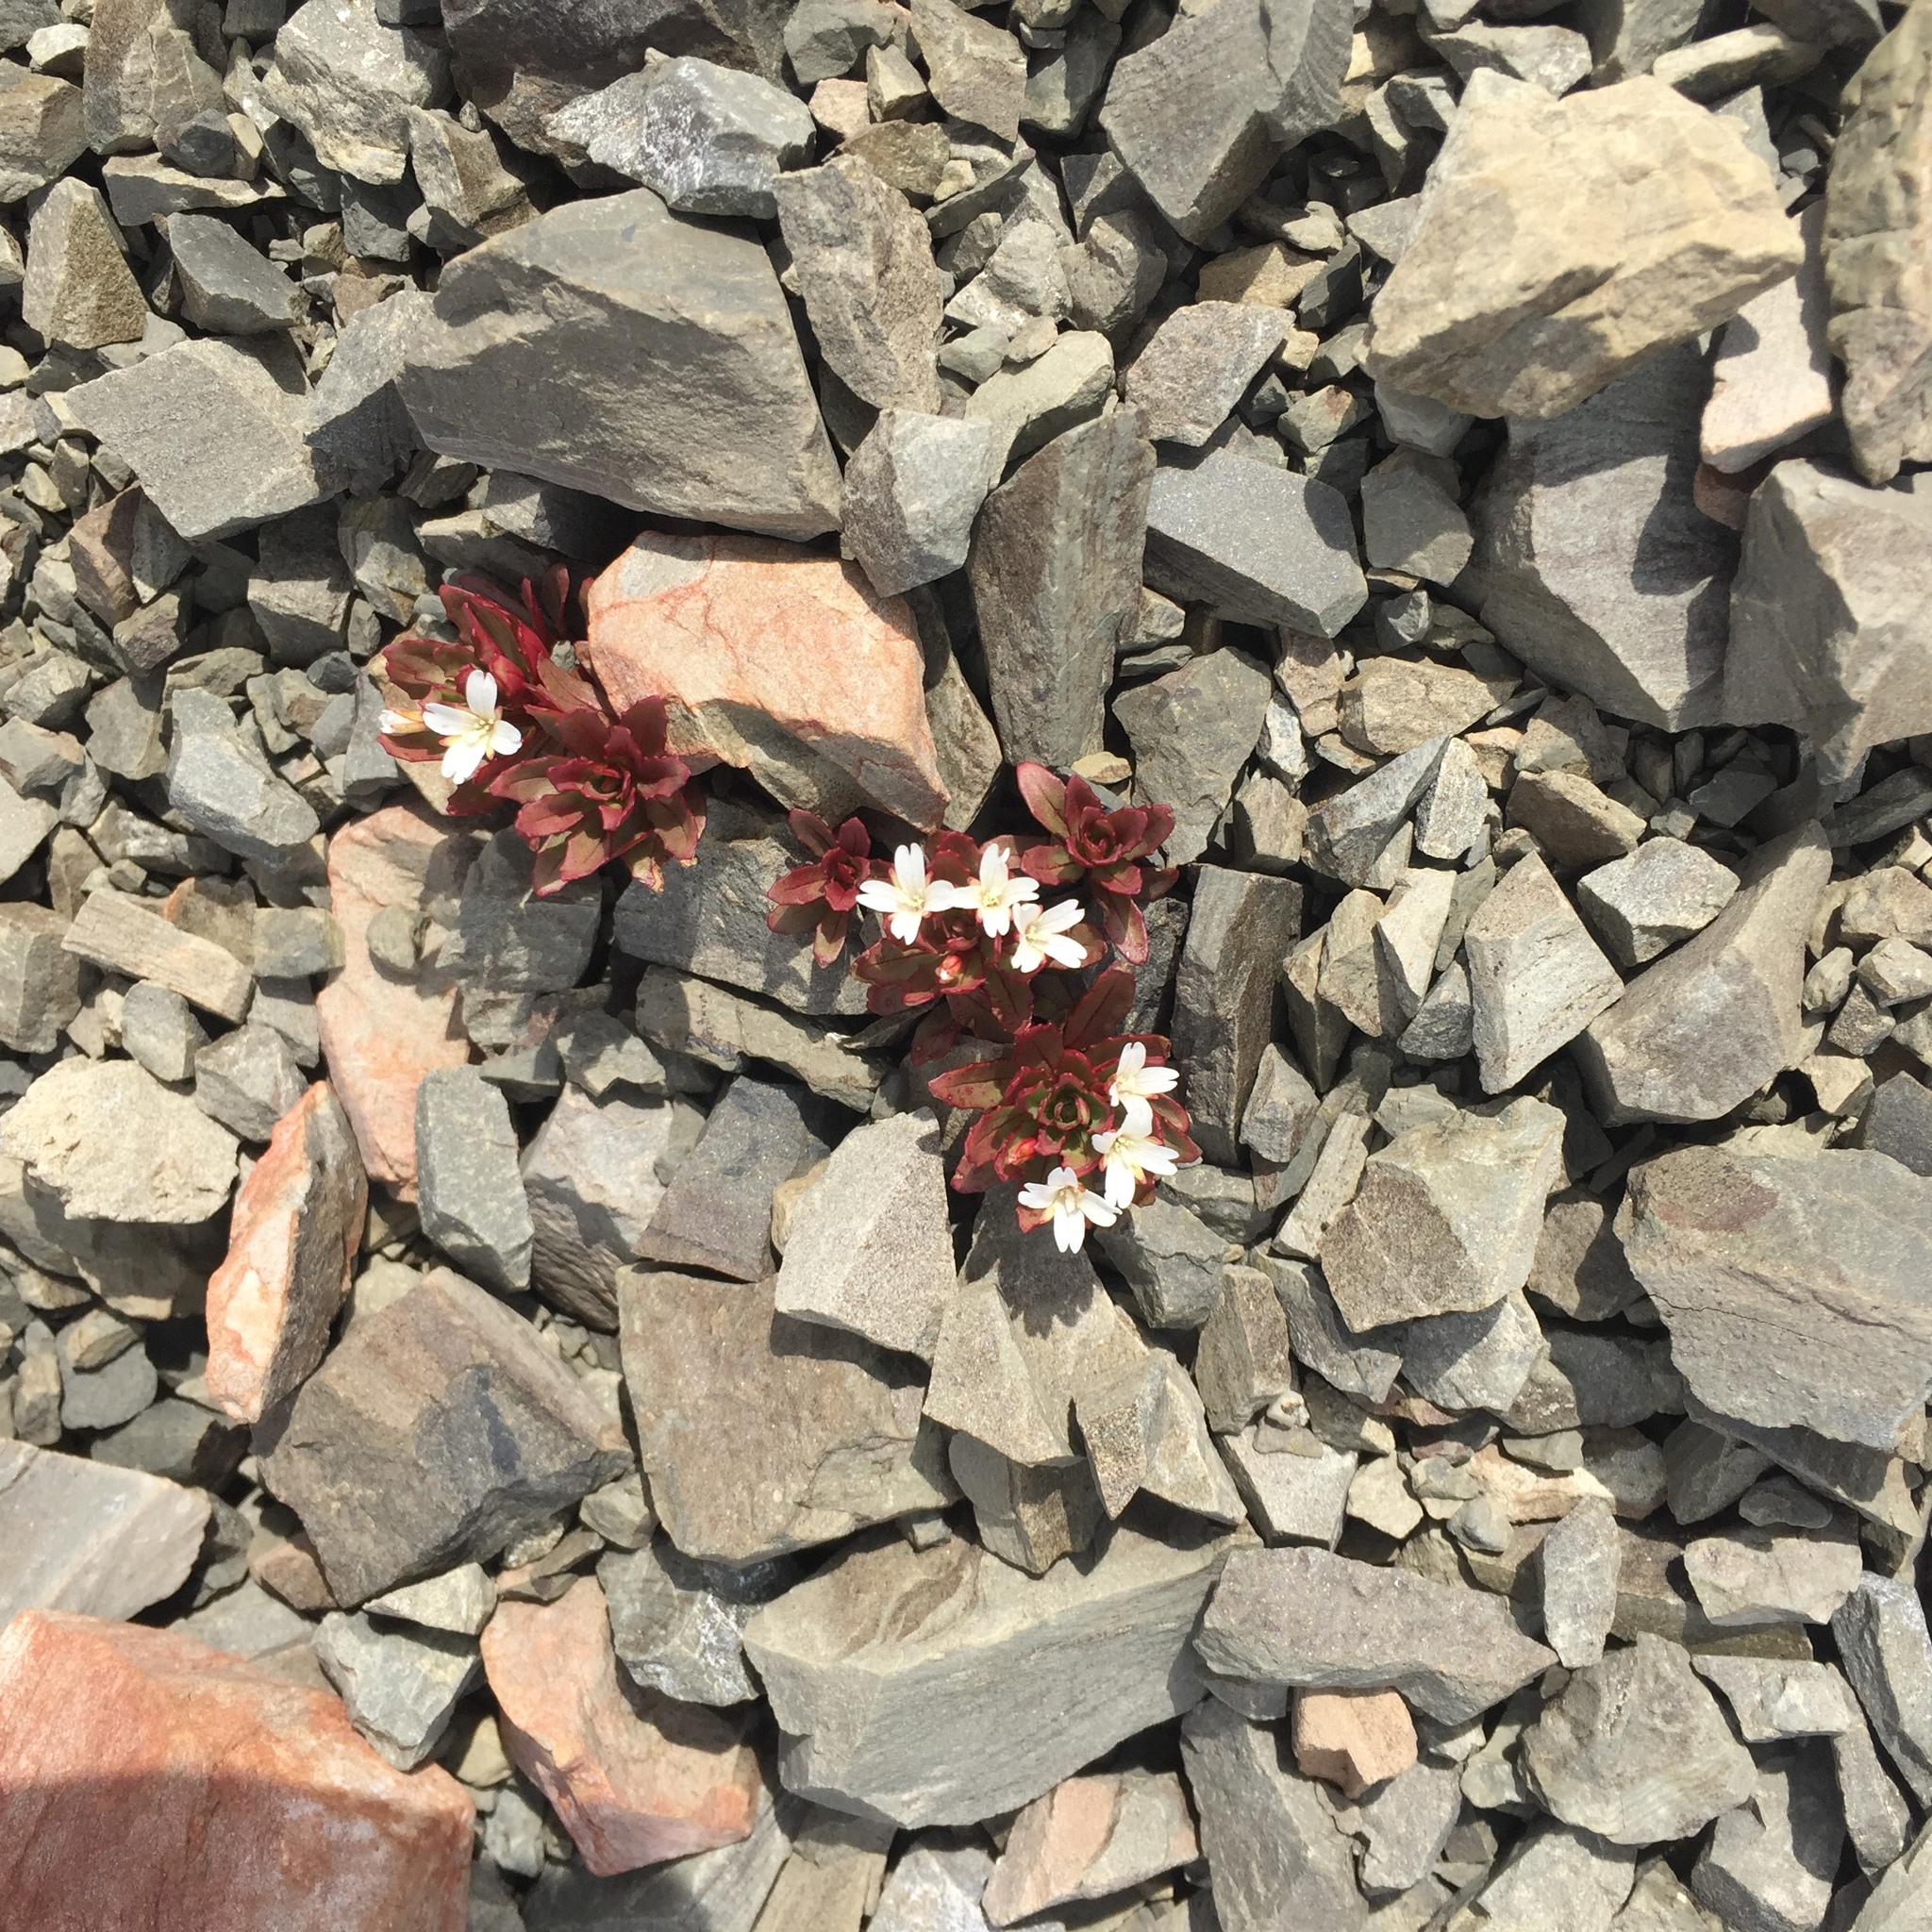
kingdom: Plantae
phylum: Tracheophyta
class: Magnoliopsida
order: Myrtales
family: Onagraceae
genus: Epilobium
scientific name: Epilobium pycnostachyum
